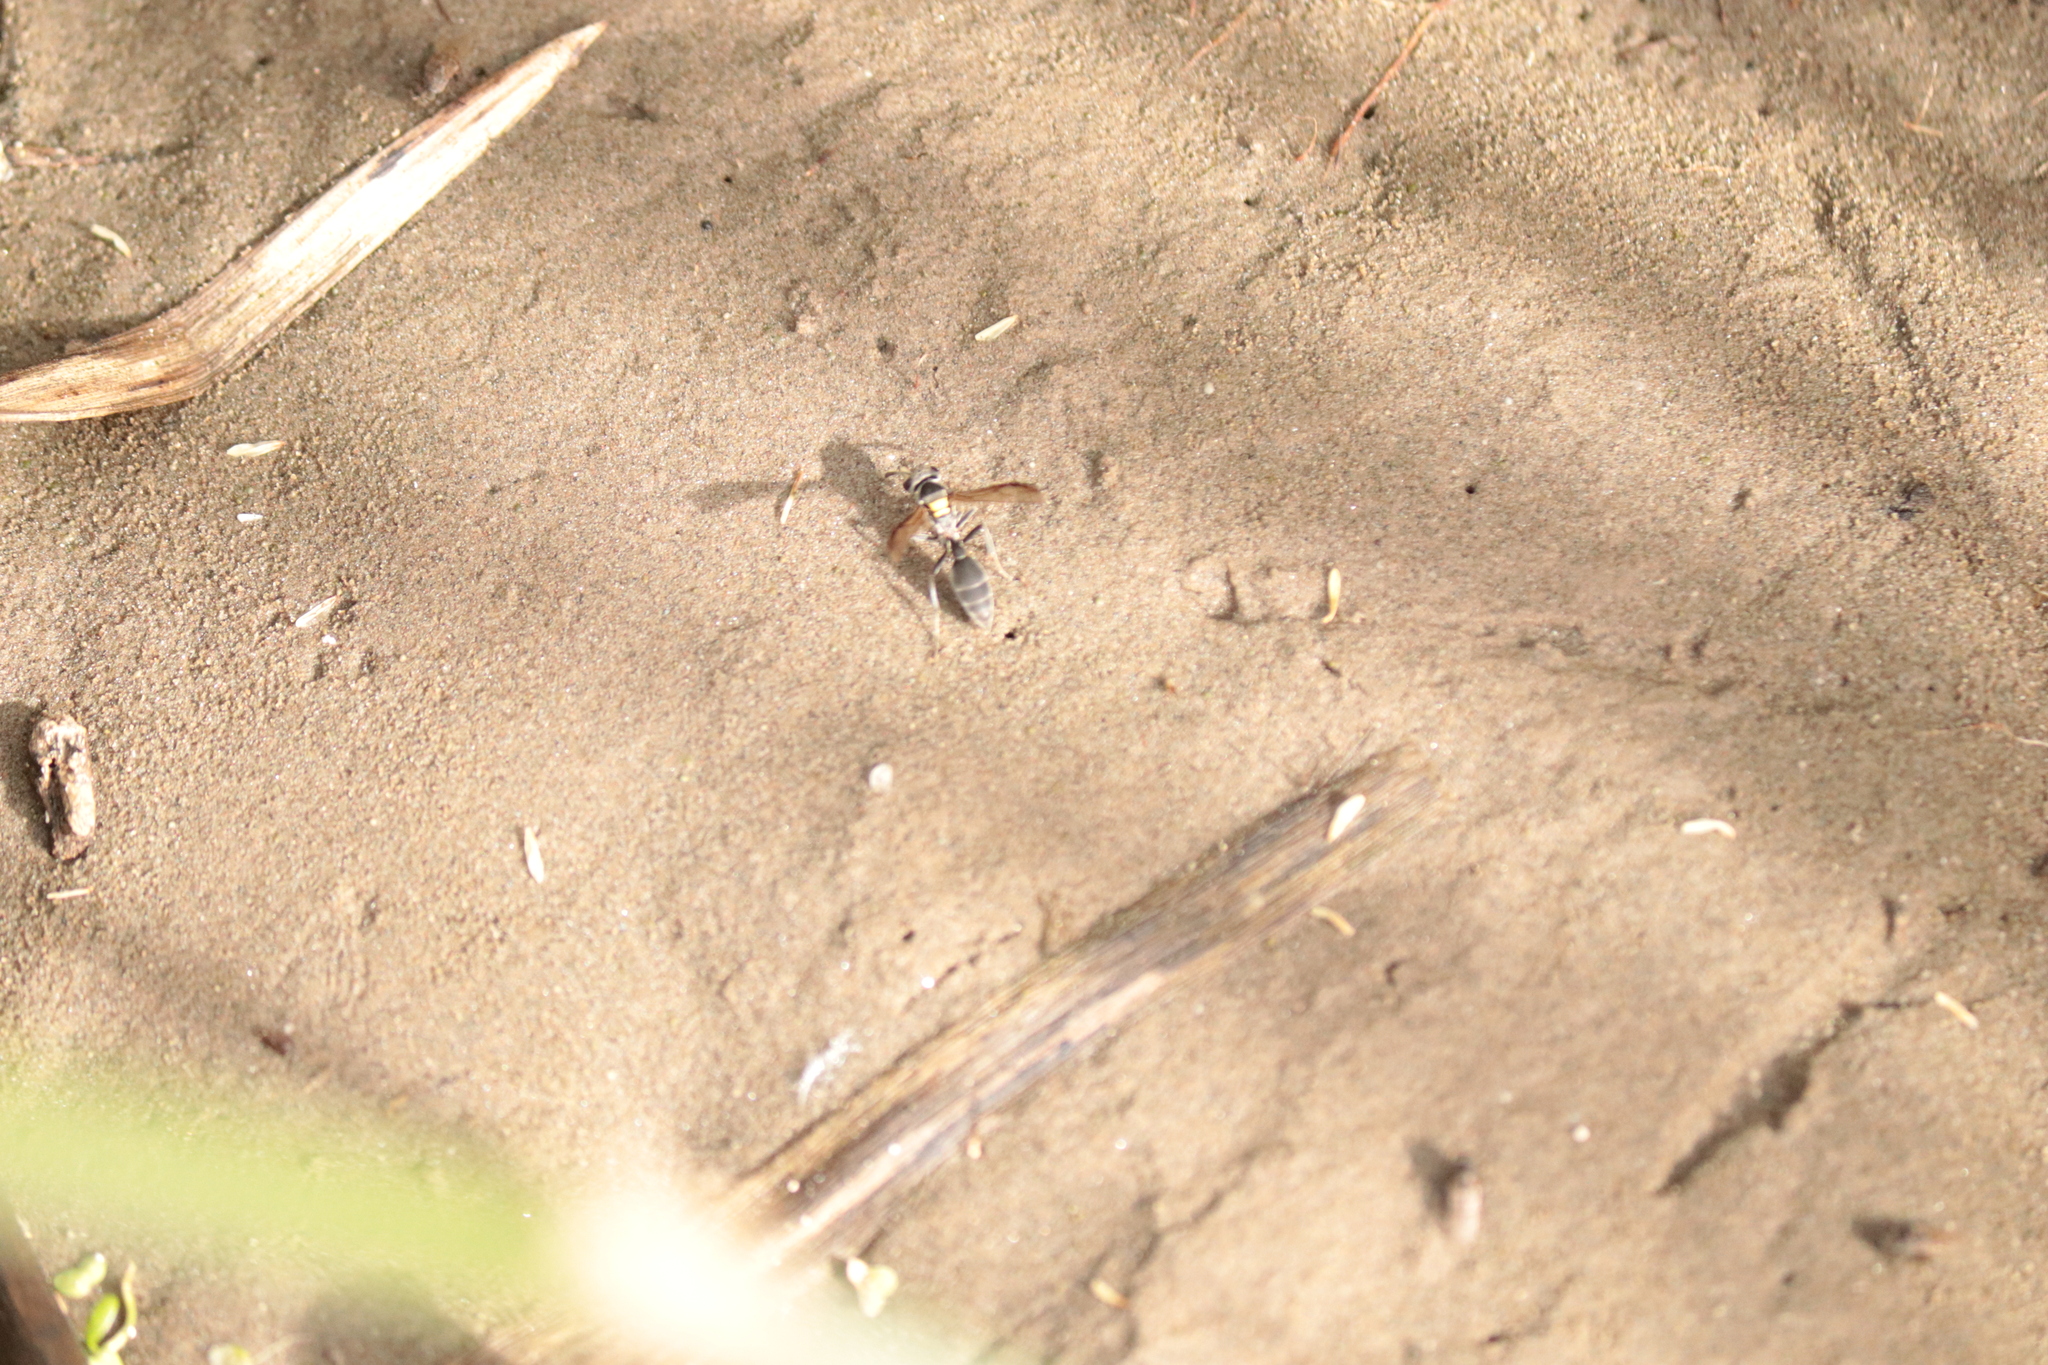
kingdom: Animalia
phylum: Arthropoda
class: Insecta
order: Hymenoptera
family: Eumenidae
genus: Polybia
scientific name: Polybia scutellaris
